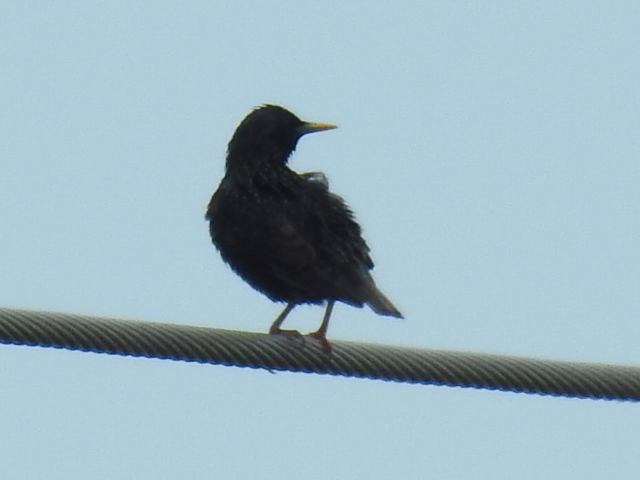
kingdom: Animalia
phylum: Chordata
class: Aves
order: Passeriformes
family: Sturnidae
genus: Sturnus
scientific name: Sturnus vulgaris
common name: Common starling
